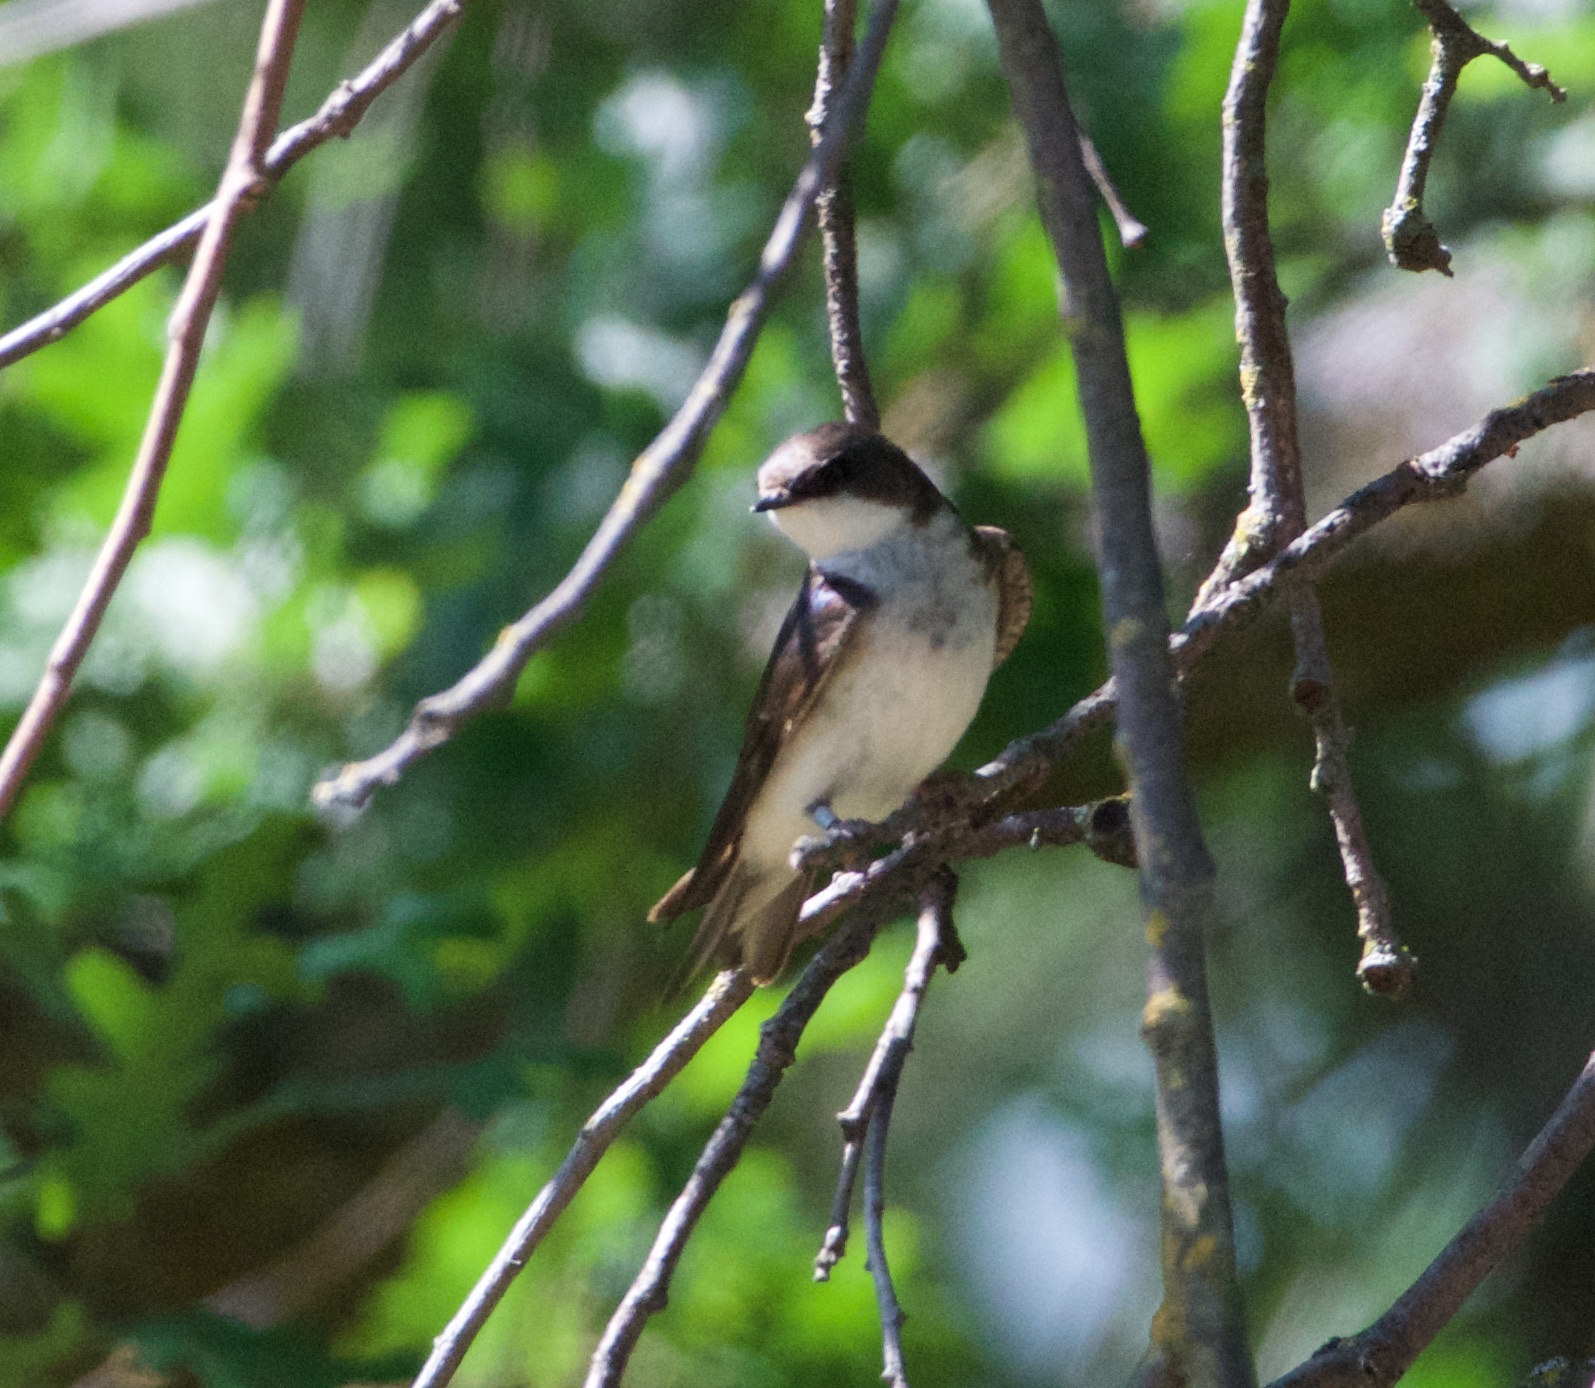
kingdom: Animalia
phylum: Chordata
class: Aves
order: Passeriformes
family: Hirundinidae
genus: Tachycineta
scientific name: Tachycineta bicolor
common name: Tree swallow
